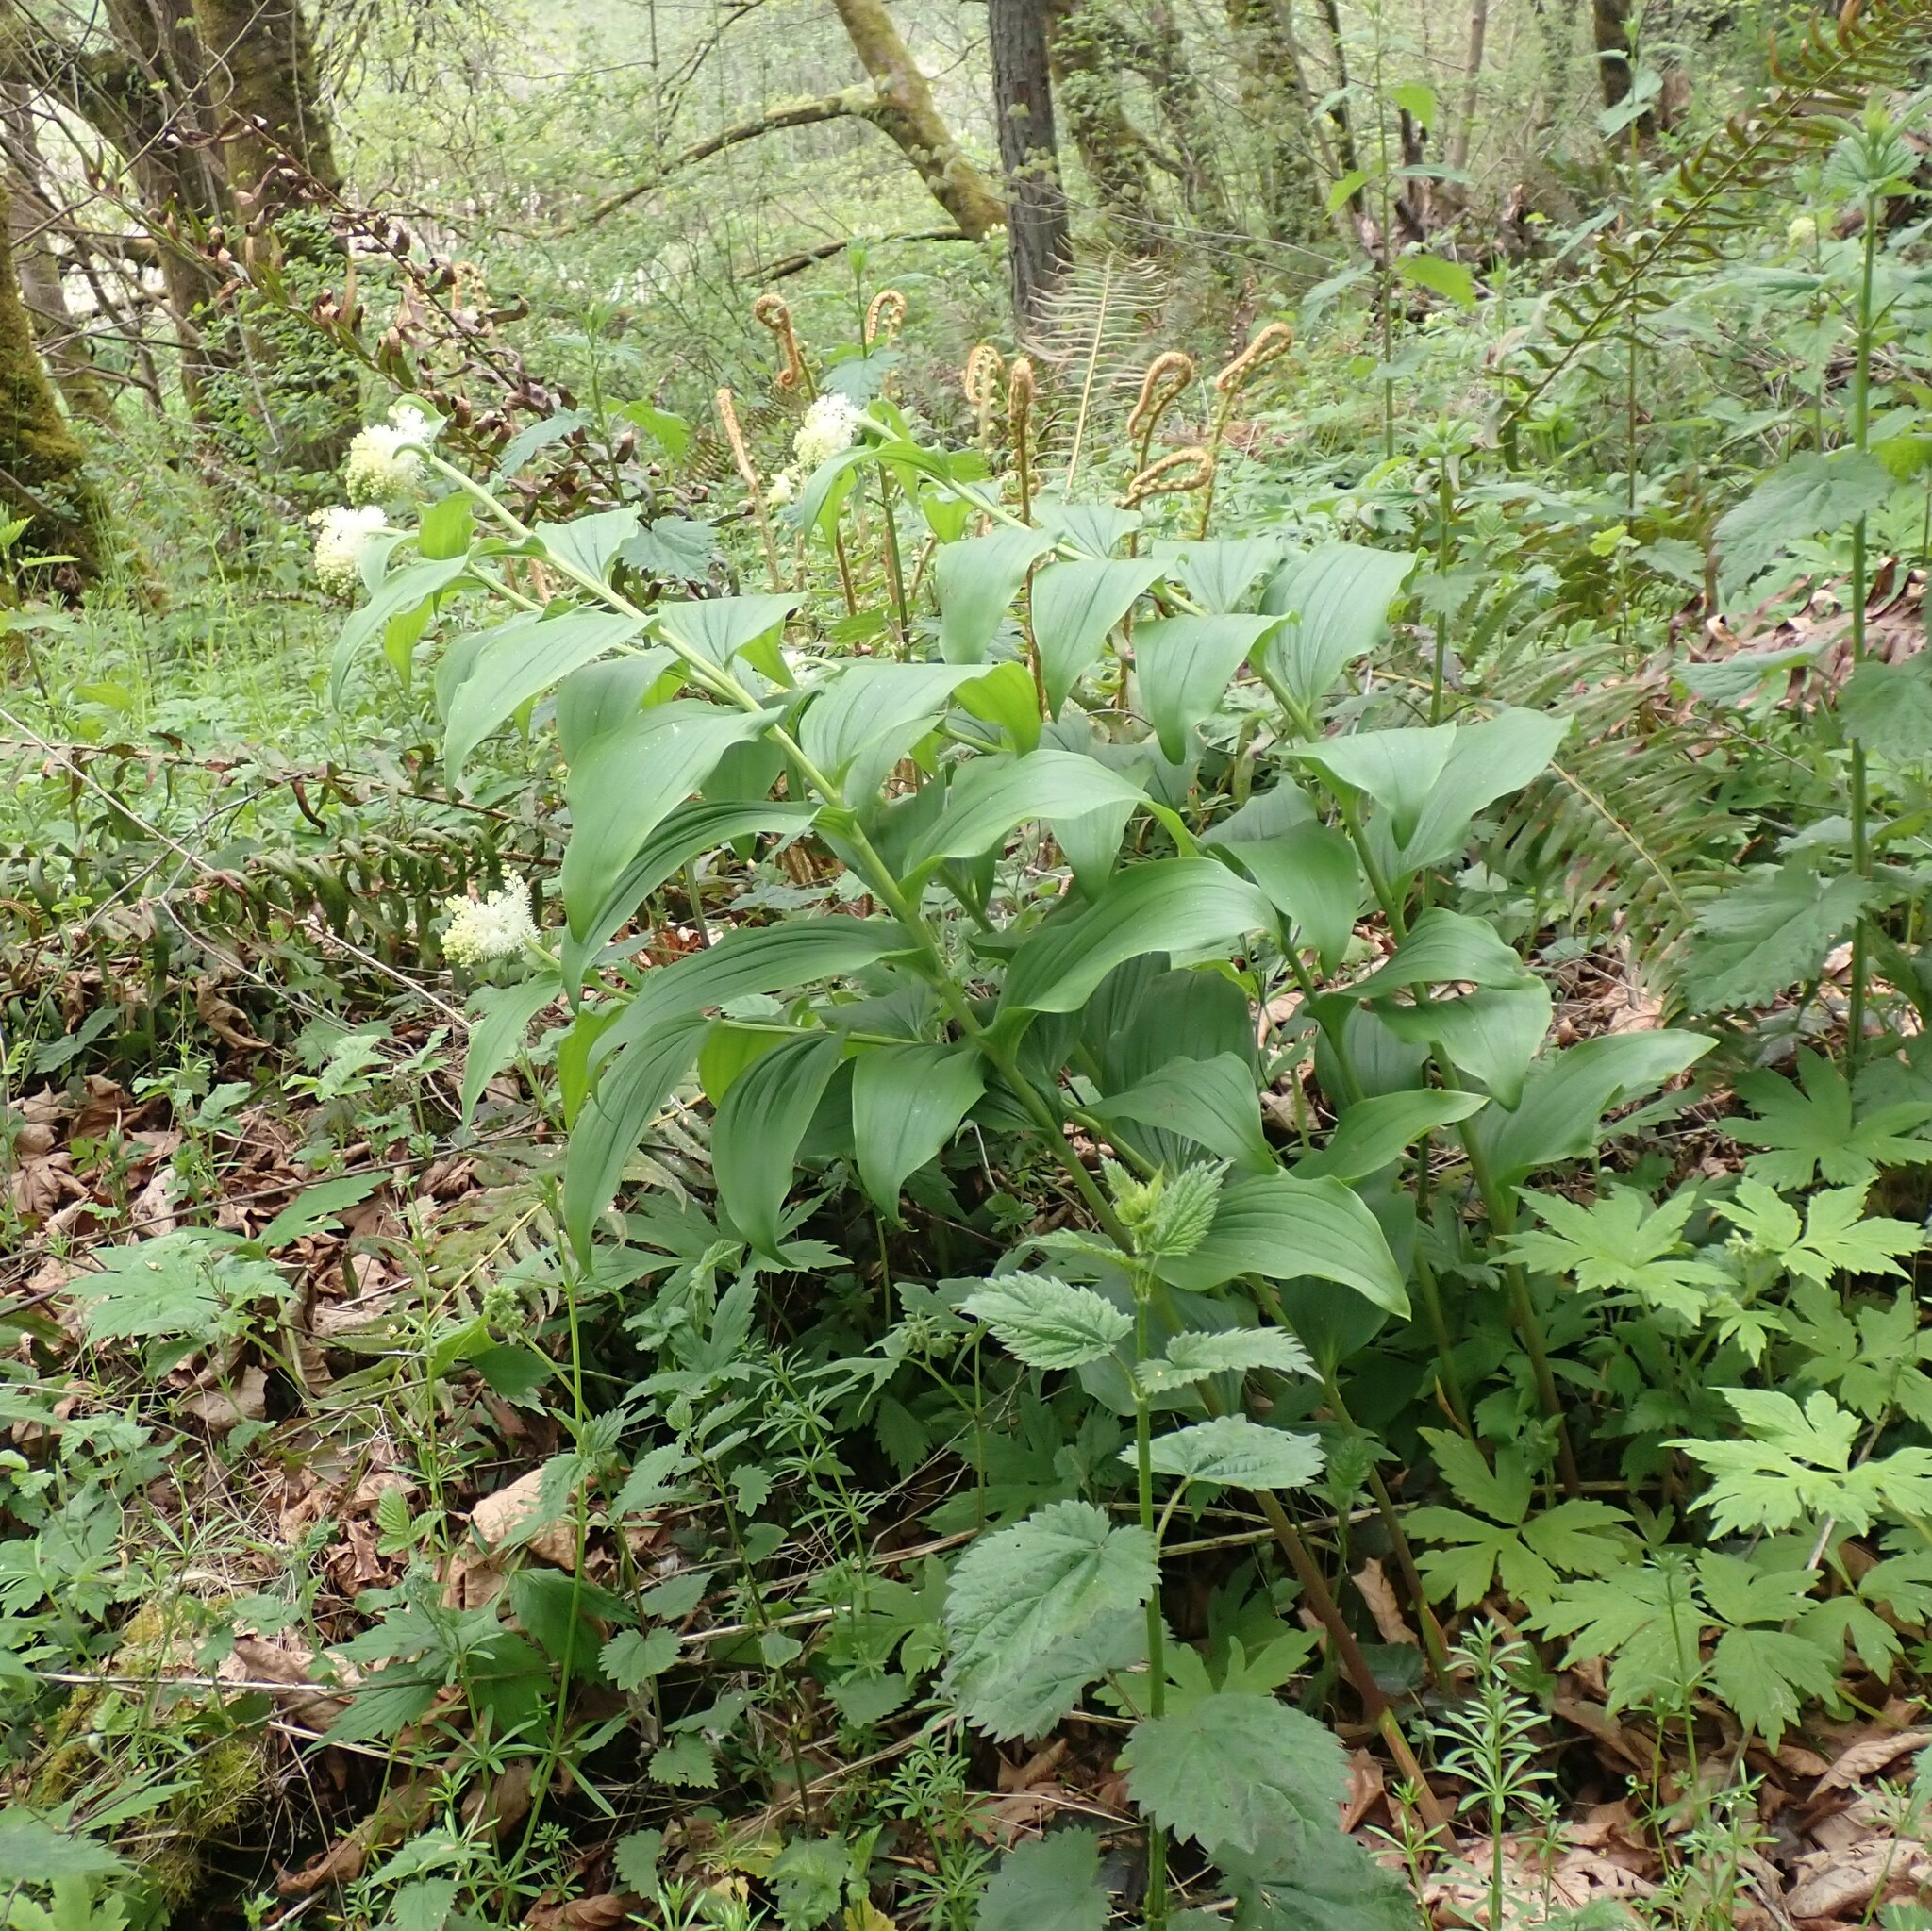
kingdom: Plantae
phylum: Tracheophyta
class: Liliopsida
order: Asparagales
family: Asparagaceae
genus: Maianthemum
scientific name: Maianthemum racemosum
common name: False spikenard
